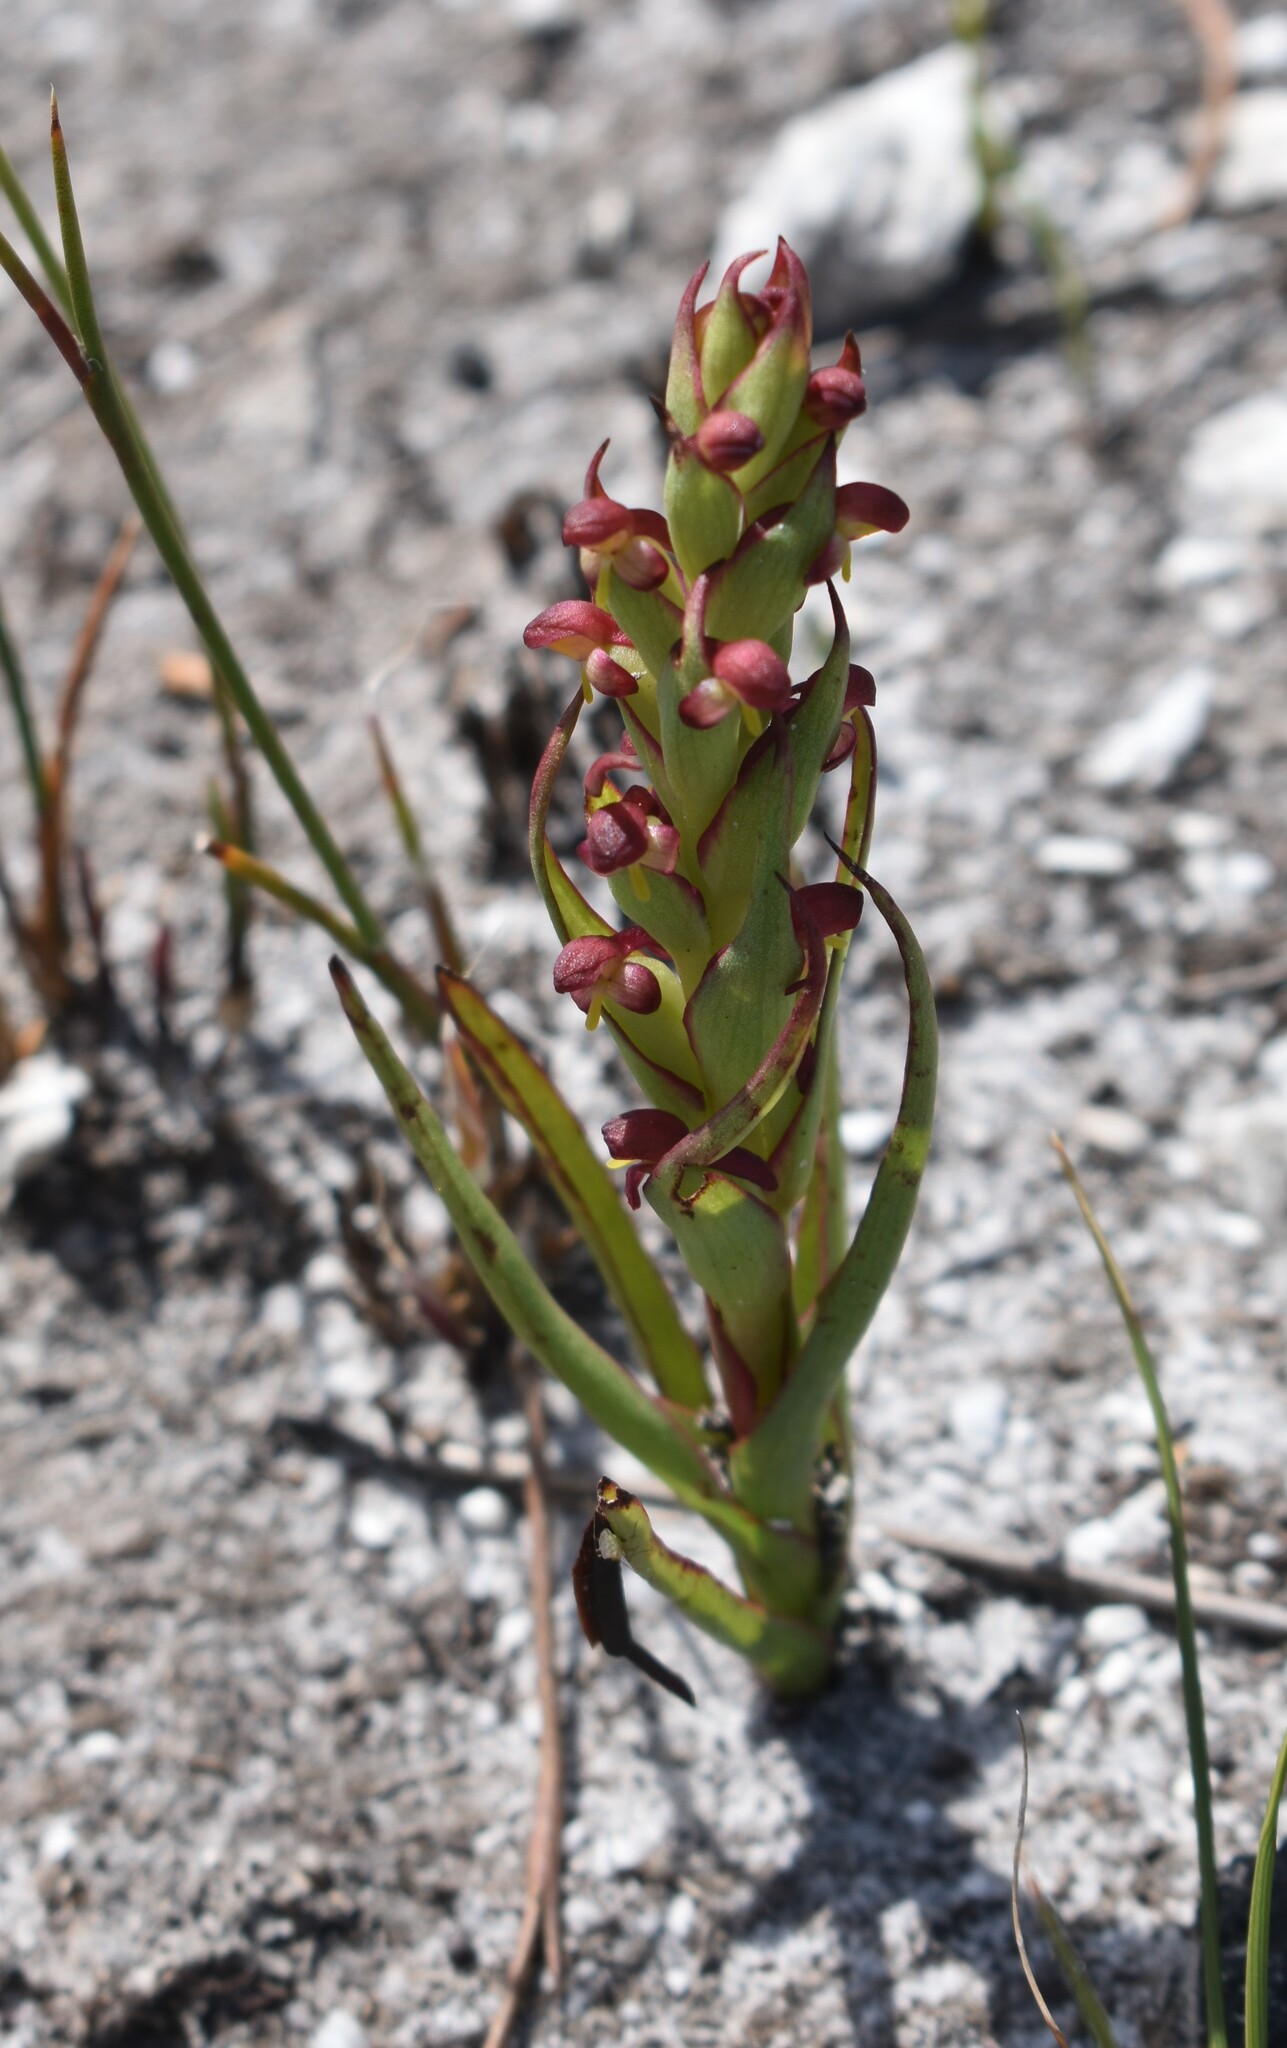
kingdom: Plantae
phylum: Tracheophyta
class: Liliopsida
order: Asparagales
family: Orchidaceae
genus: Disa
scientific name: Disa bracteata
